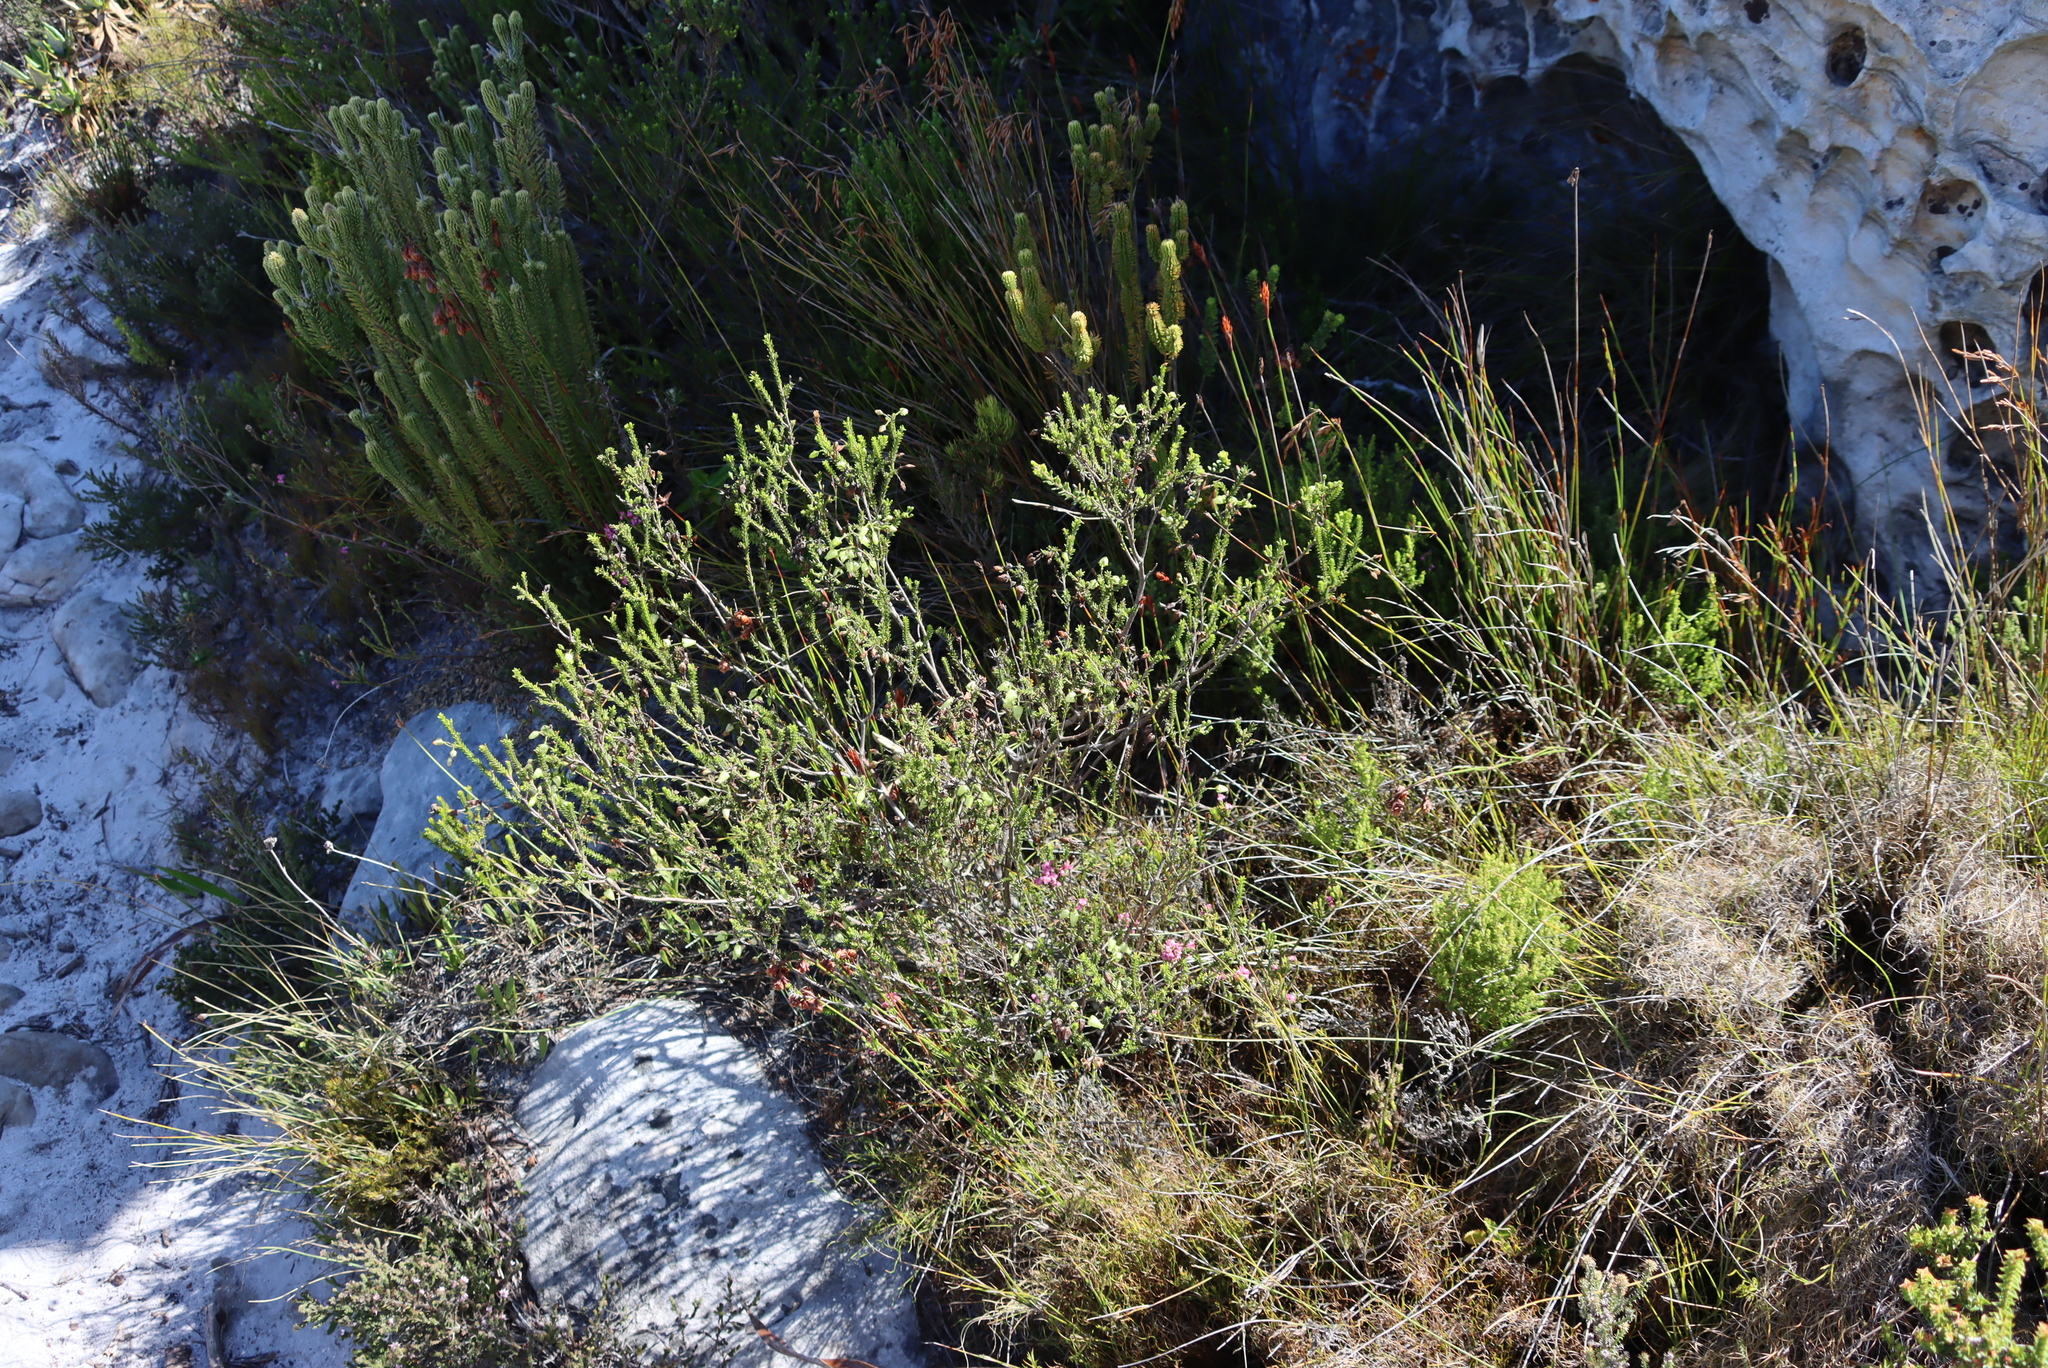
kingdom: Plantae
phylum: Tracheophyta
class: Magnoliopsida
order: Ericales
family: Ericaceae
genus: Erica
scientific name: Erica urna-viridis
